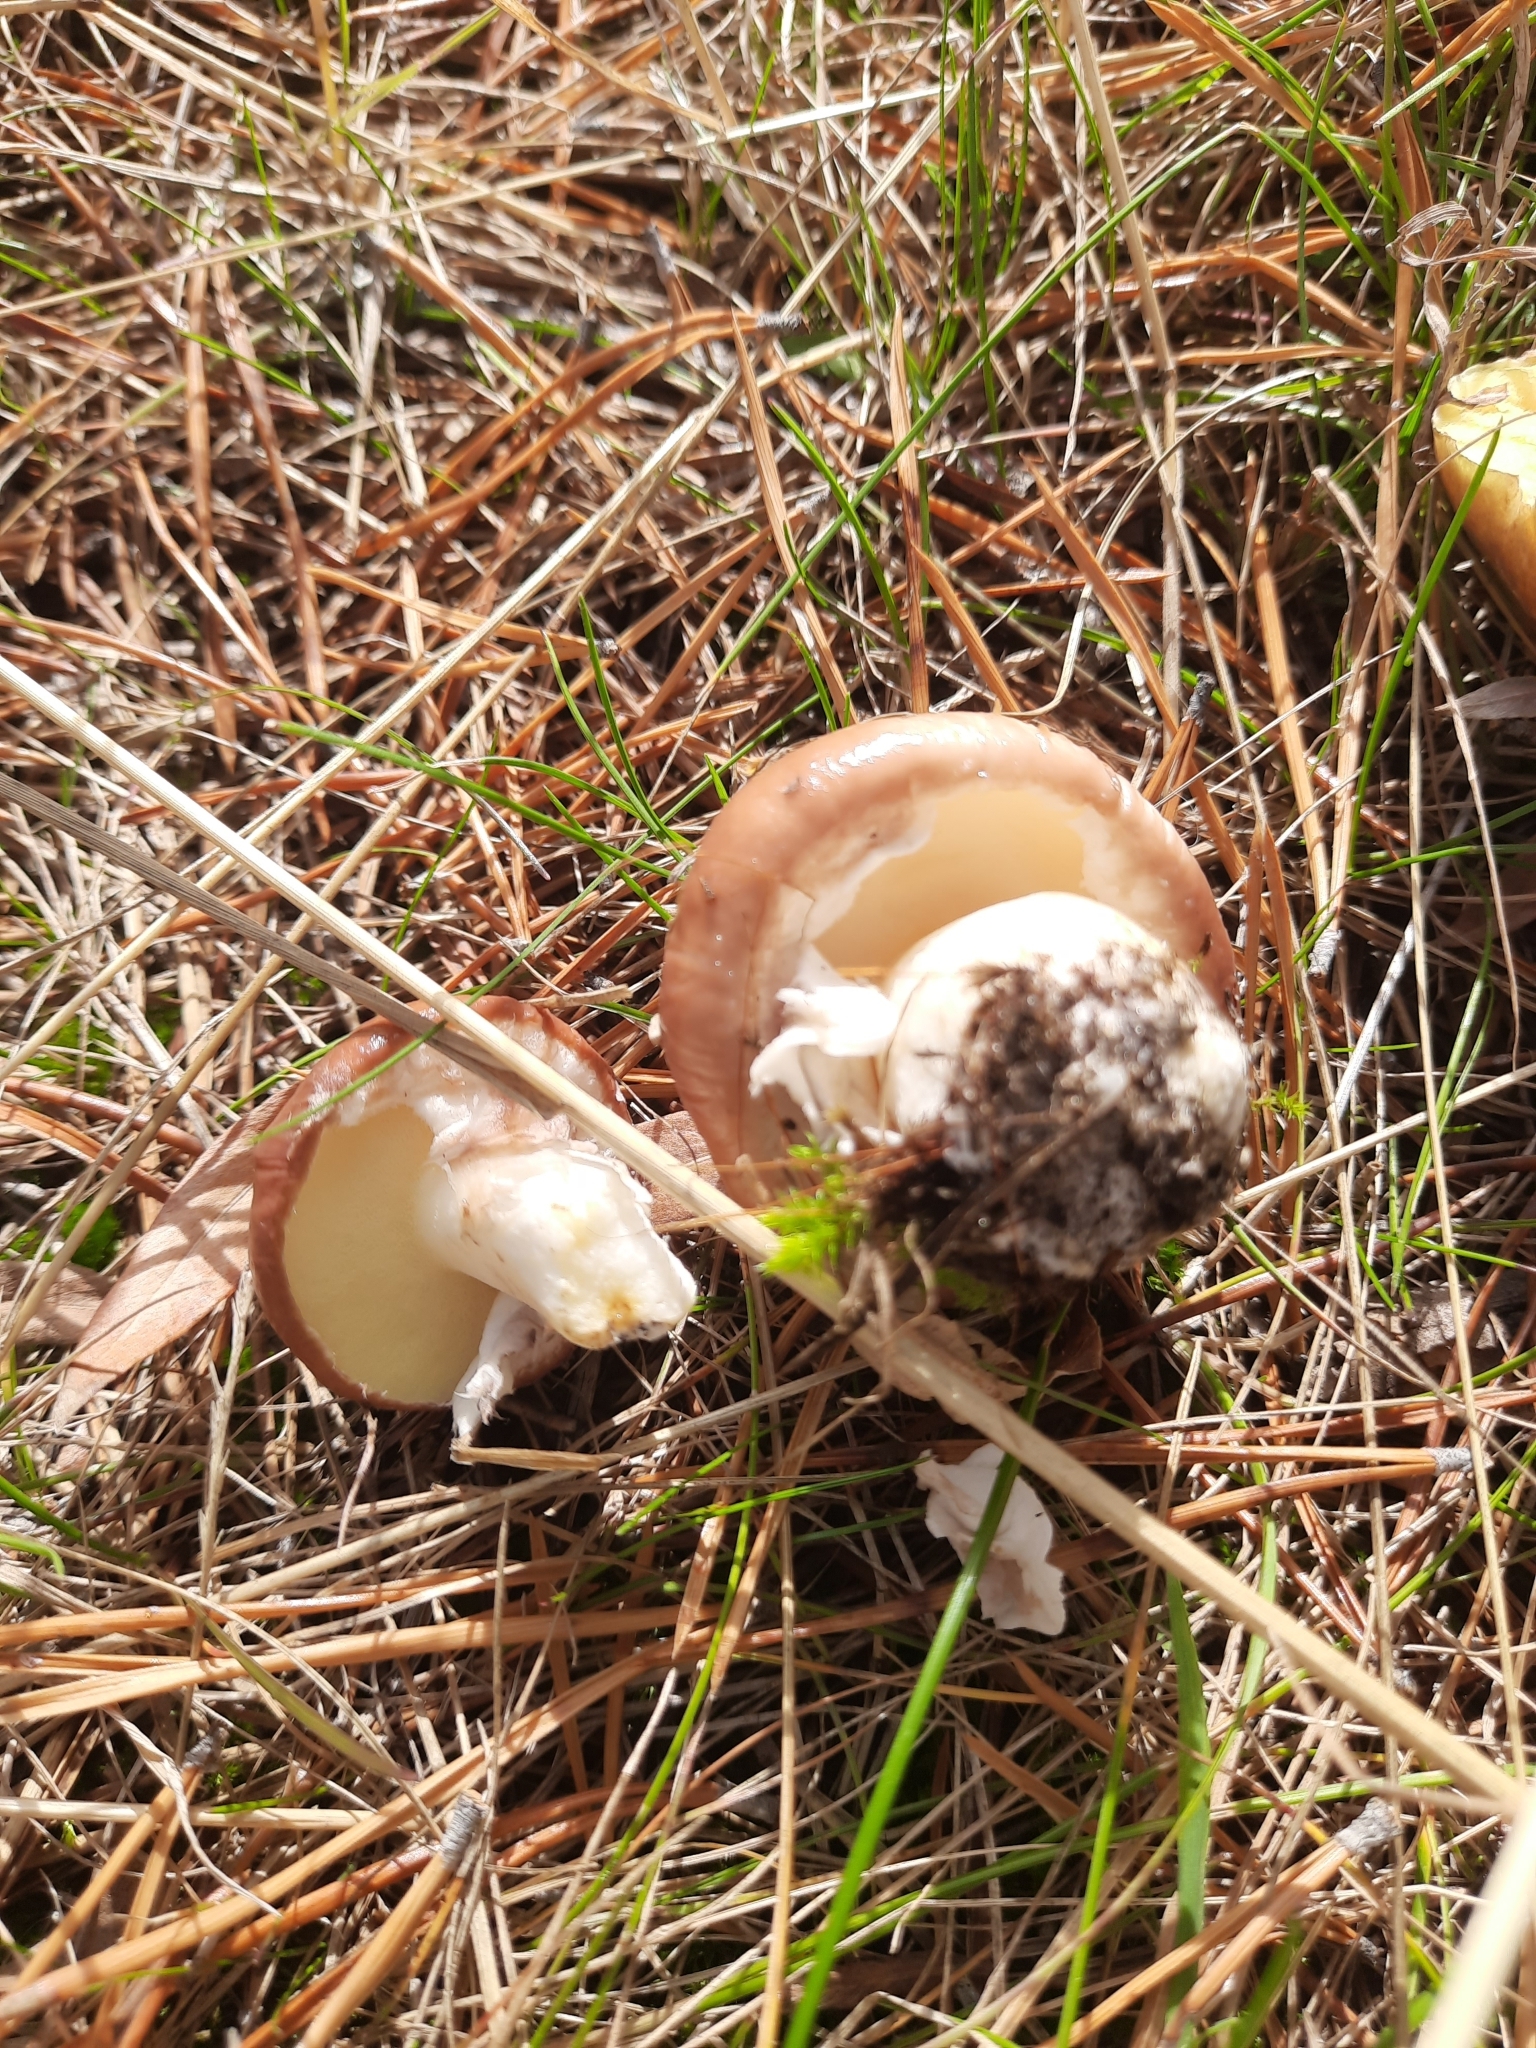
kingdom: Fungi
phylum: Basidiomycota
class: Agaricomycetes
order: Boletales
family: Suillaceae
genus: Suillus
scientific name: Suillus luteus
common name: Slippery jack
